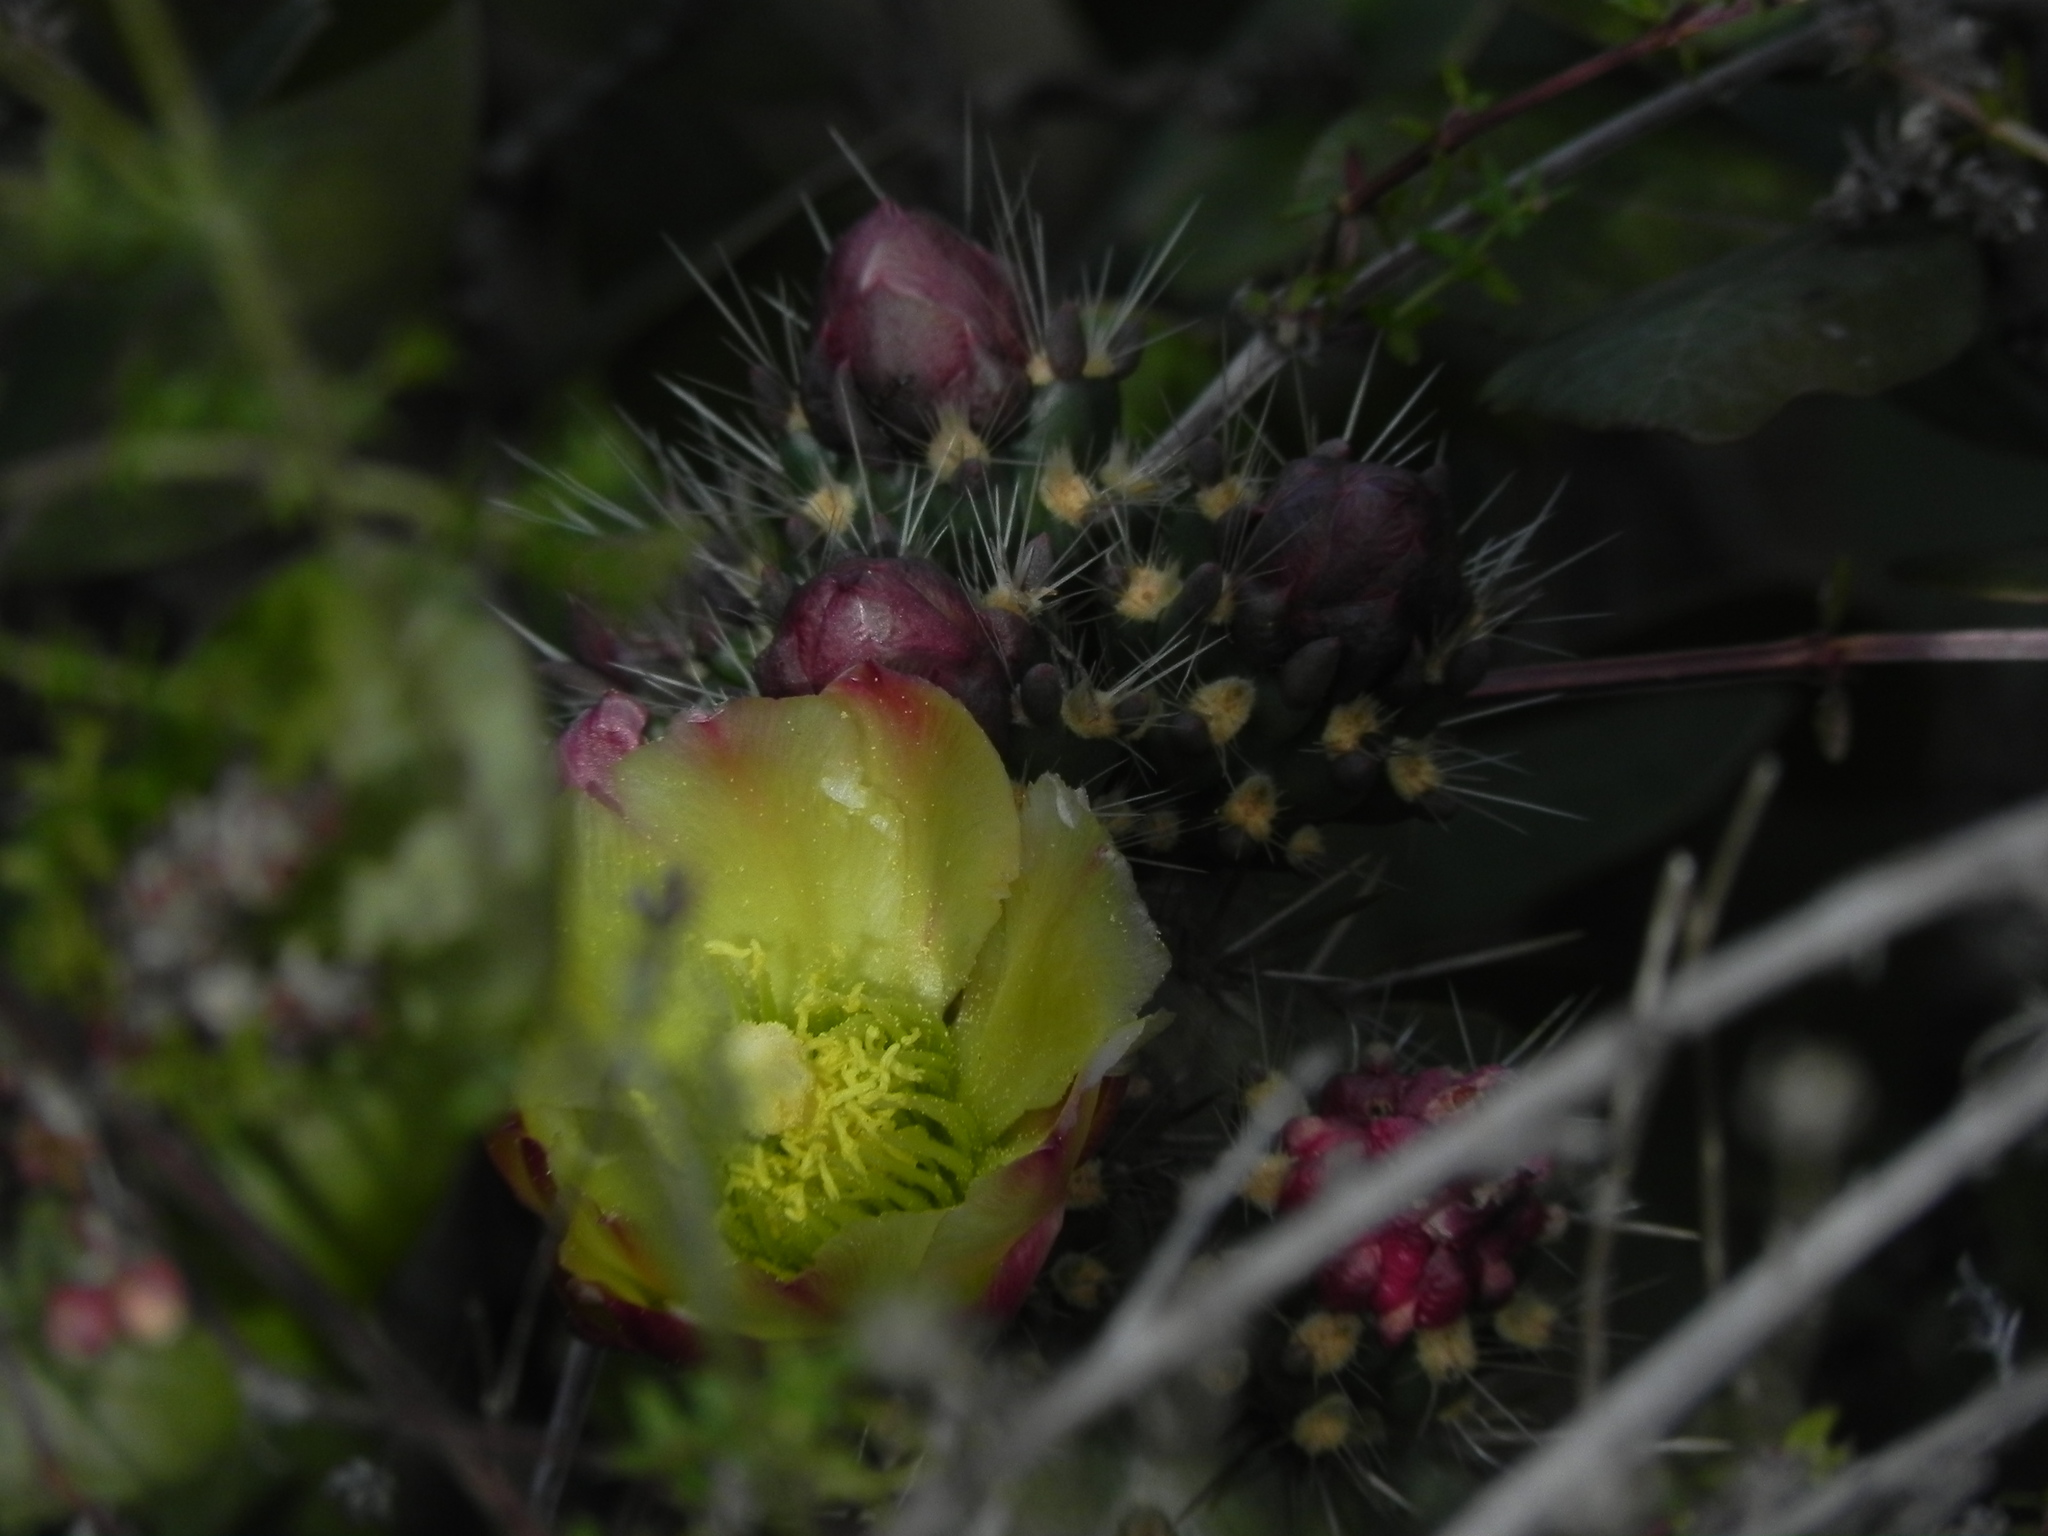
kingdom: Plantae
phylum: Tracheophyta
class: Magnoliopsida
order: Caryophyllales
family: Cactaceae
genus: Cylindropuntia
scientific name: Cylindropuntia californica
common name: Snake cholla
